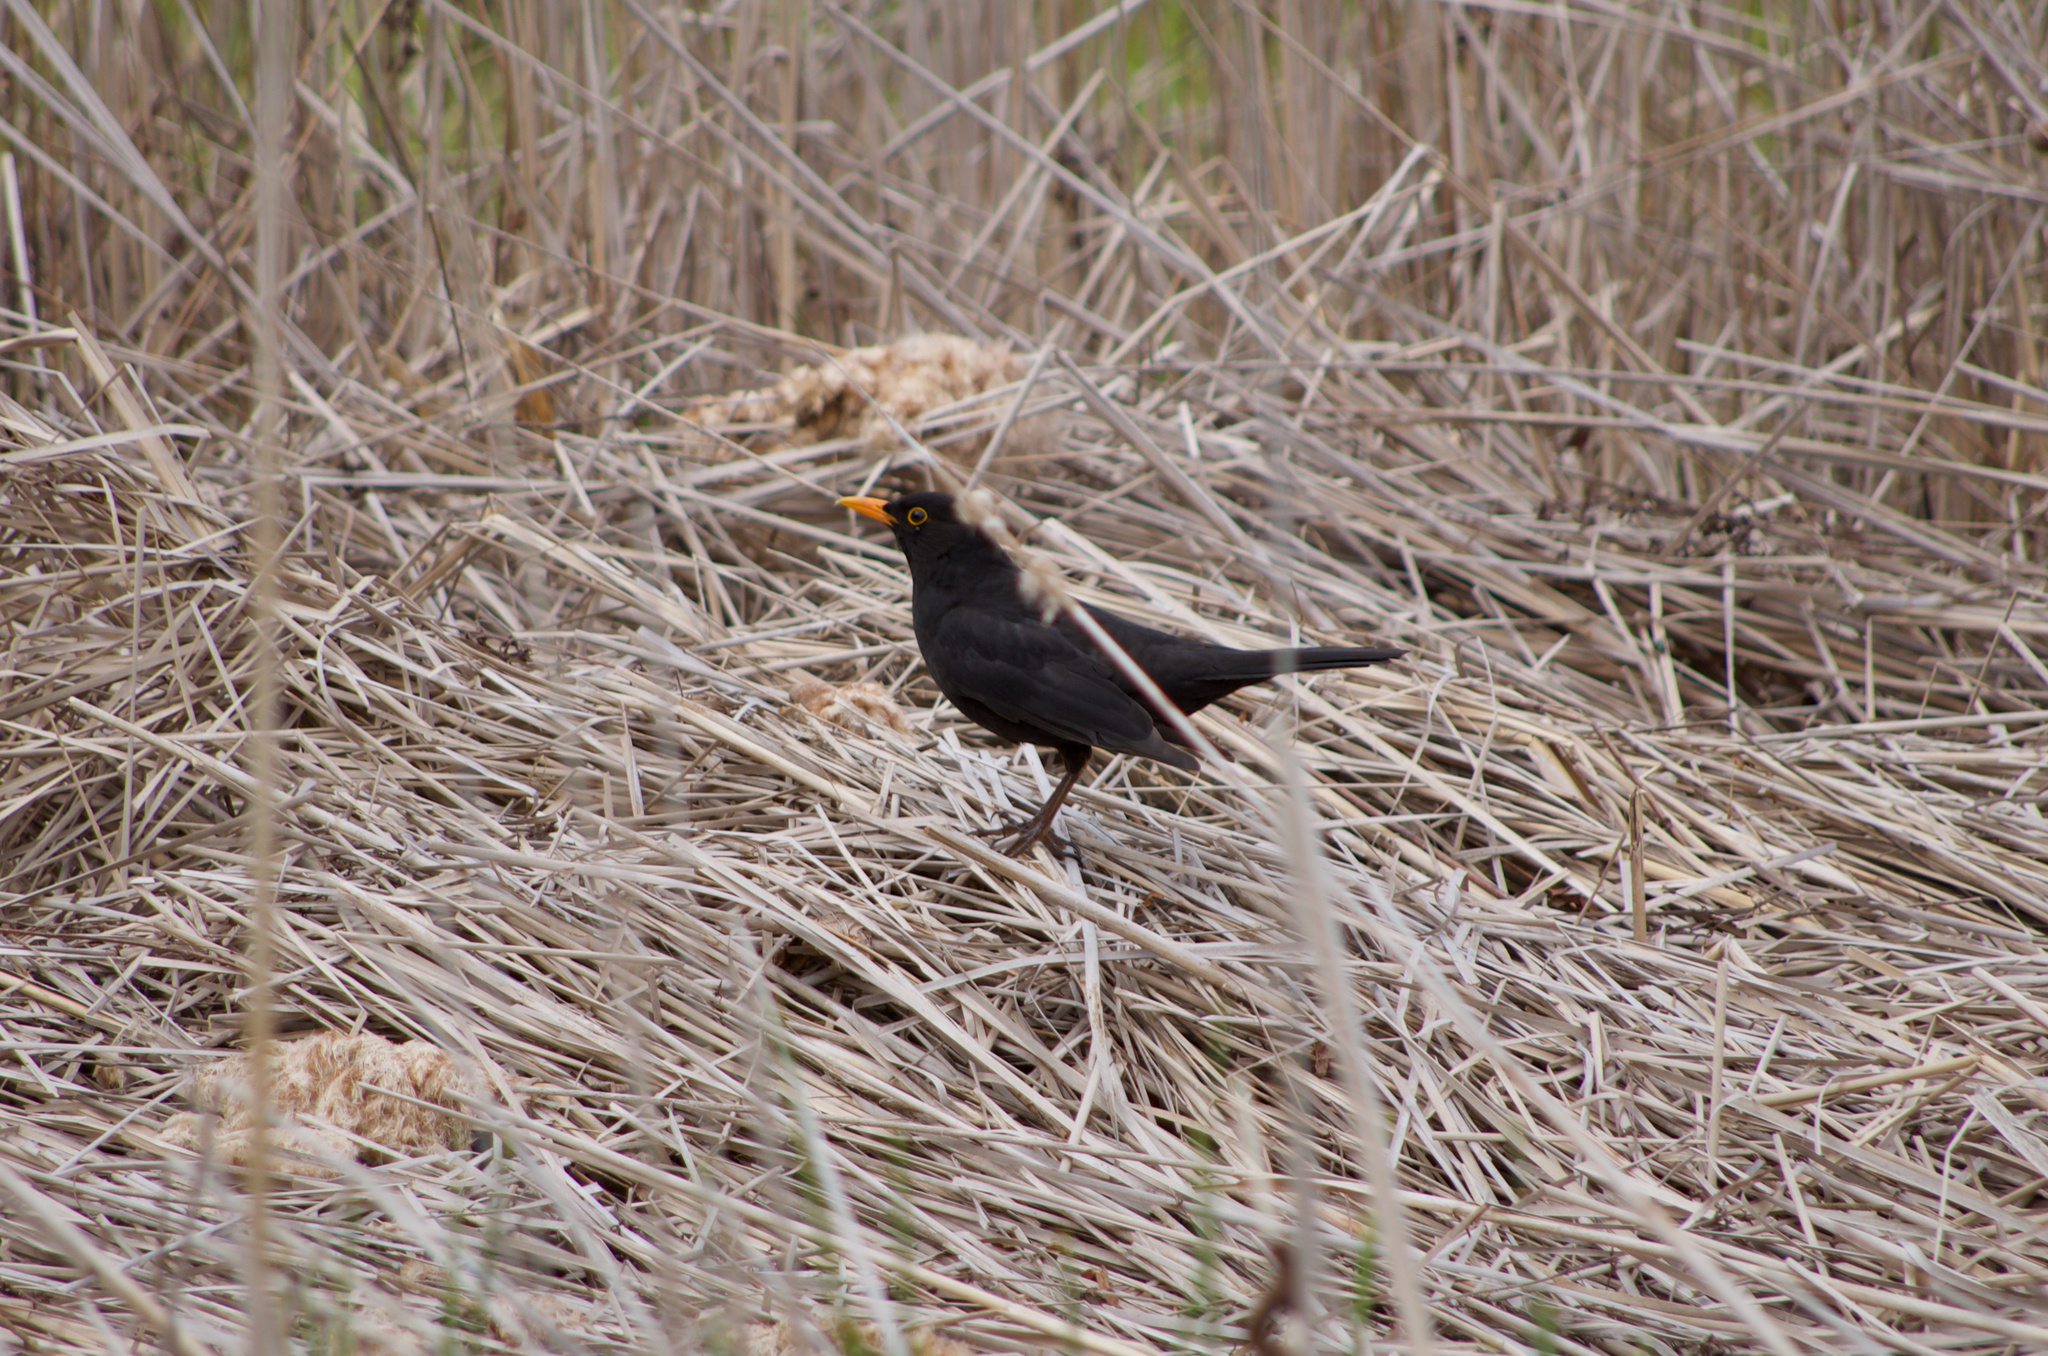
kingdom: Animalia
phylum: Chordata
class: Aves
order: Passeriformes
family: Turdidae
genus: Turdus
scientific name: Turdus merula
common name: Common blackbird
